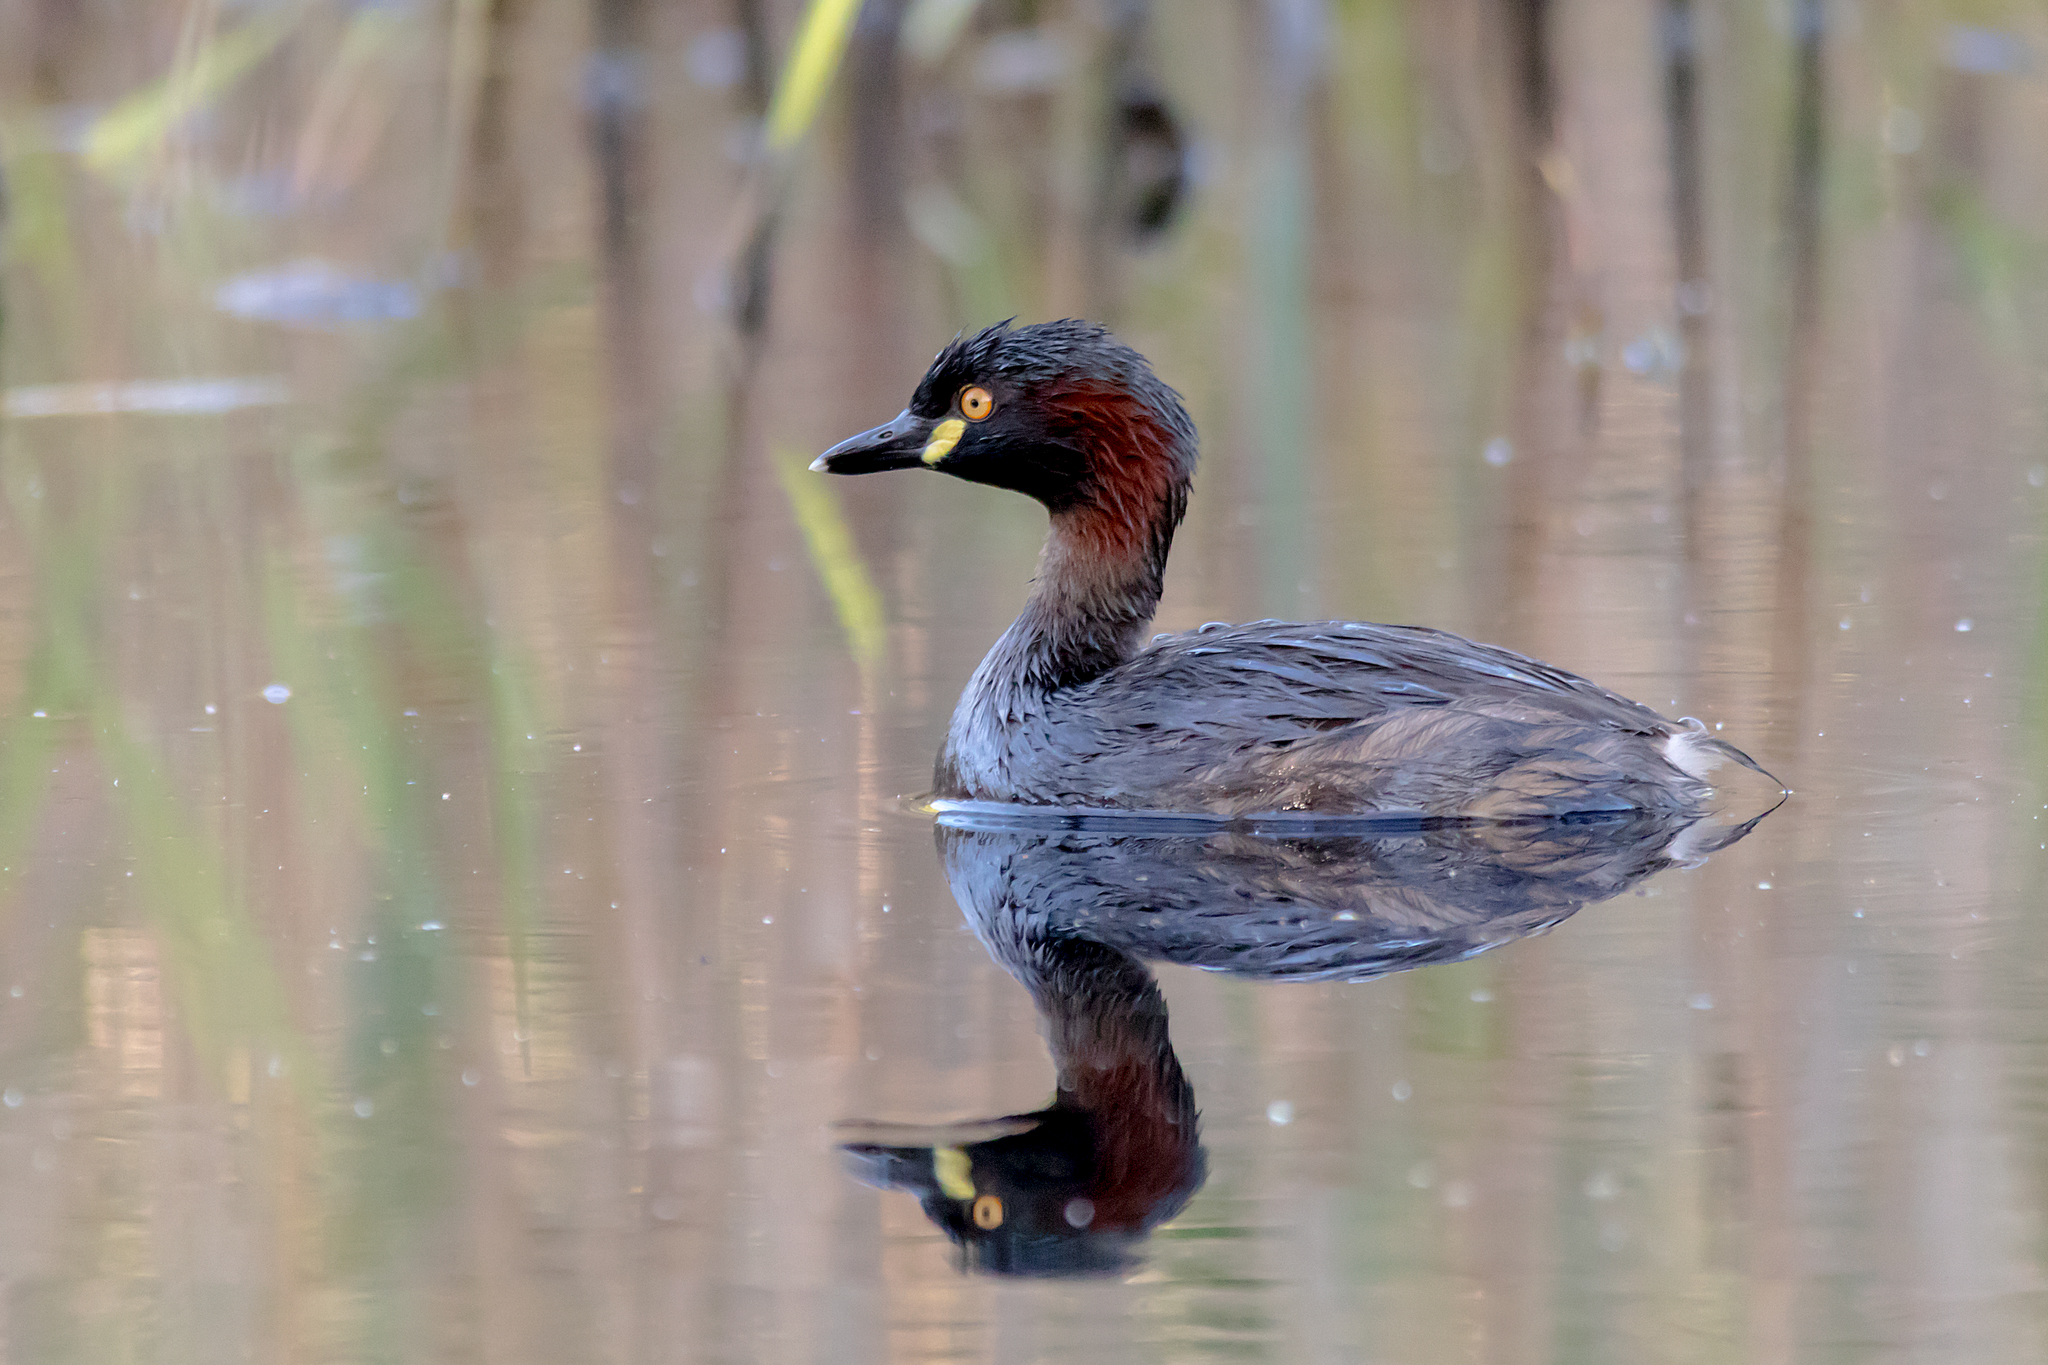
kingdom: Animalia
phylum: Chordata
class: Aves
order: Podicipediformes
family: Podicipedidae
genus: Tachybaptus
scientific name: Tachybaptus novaehollandiae
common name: Australasian grebe
